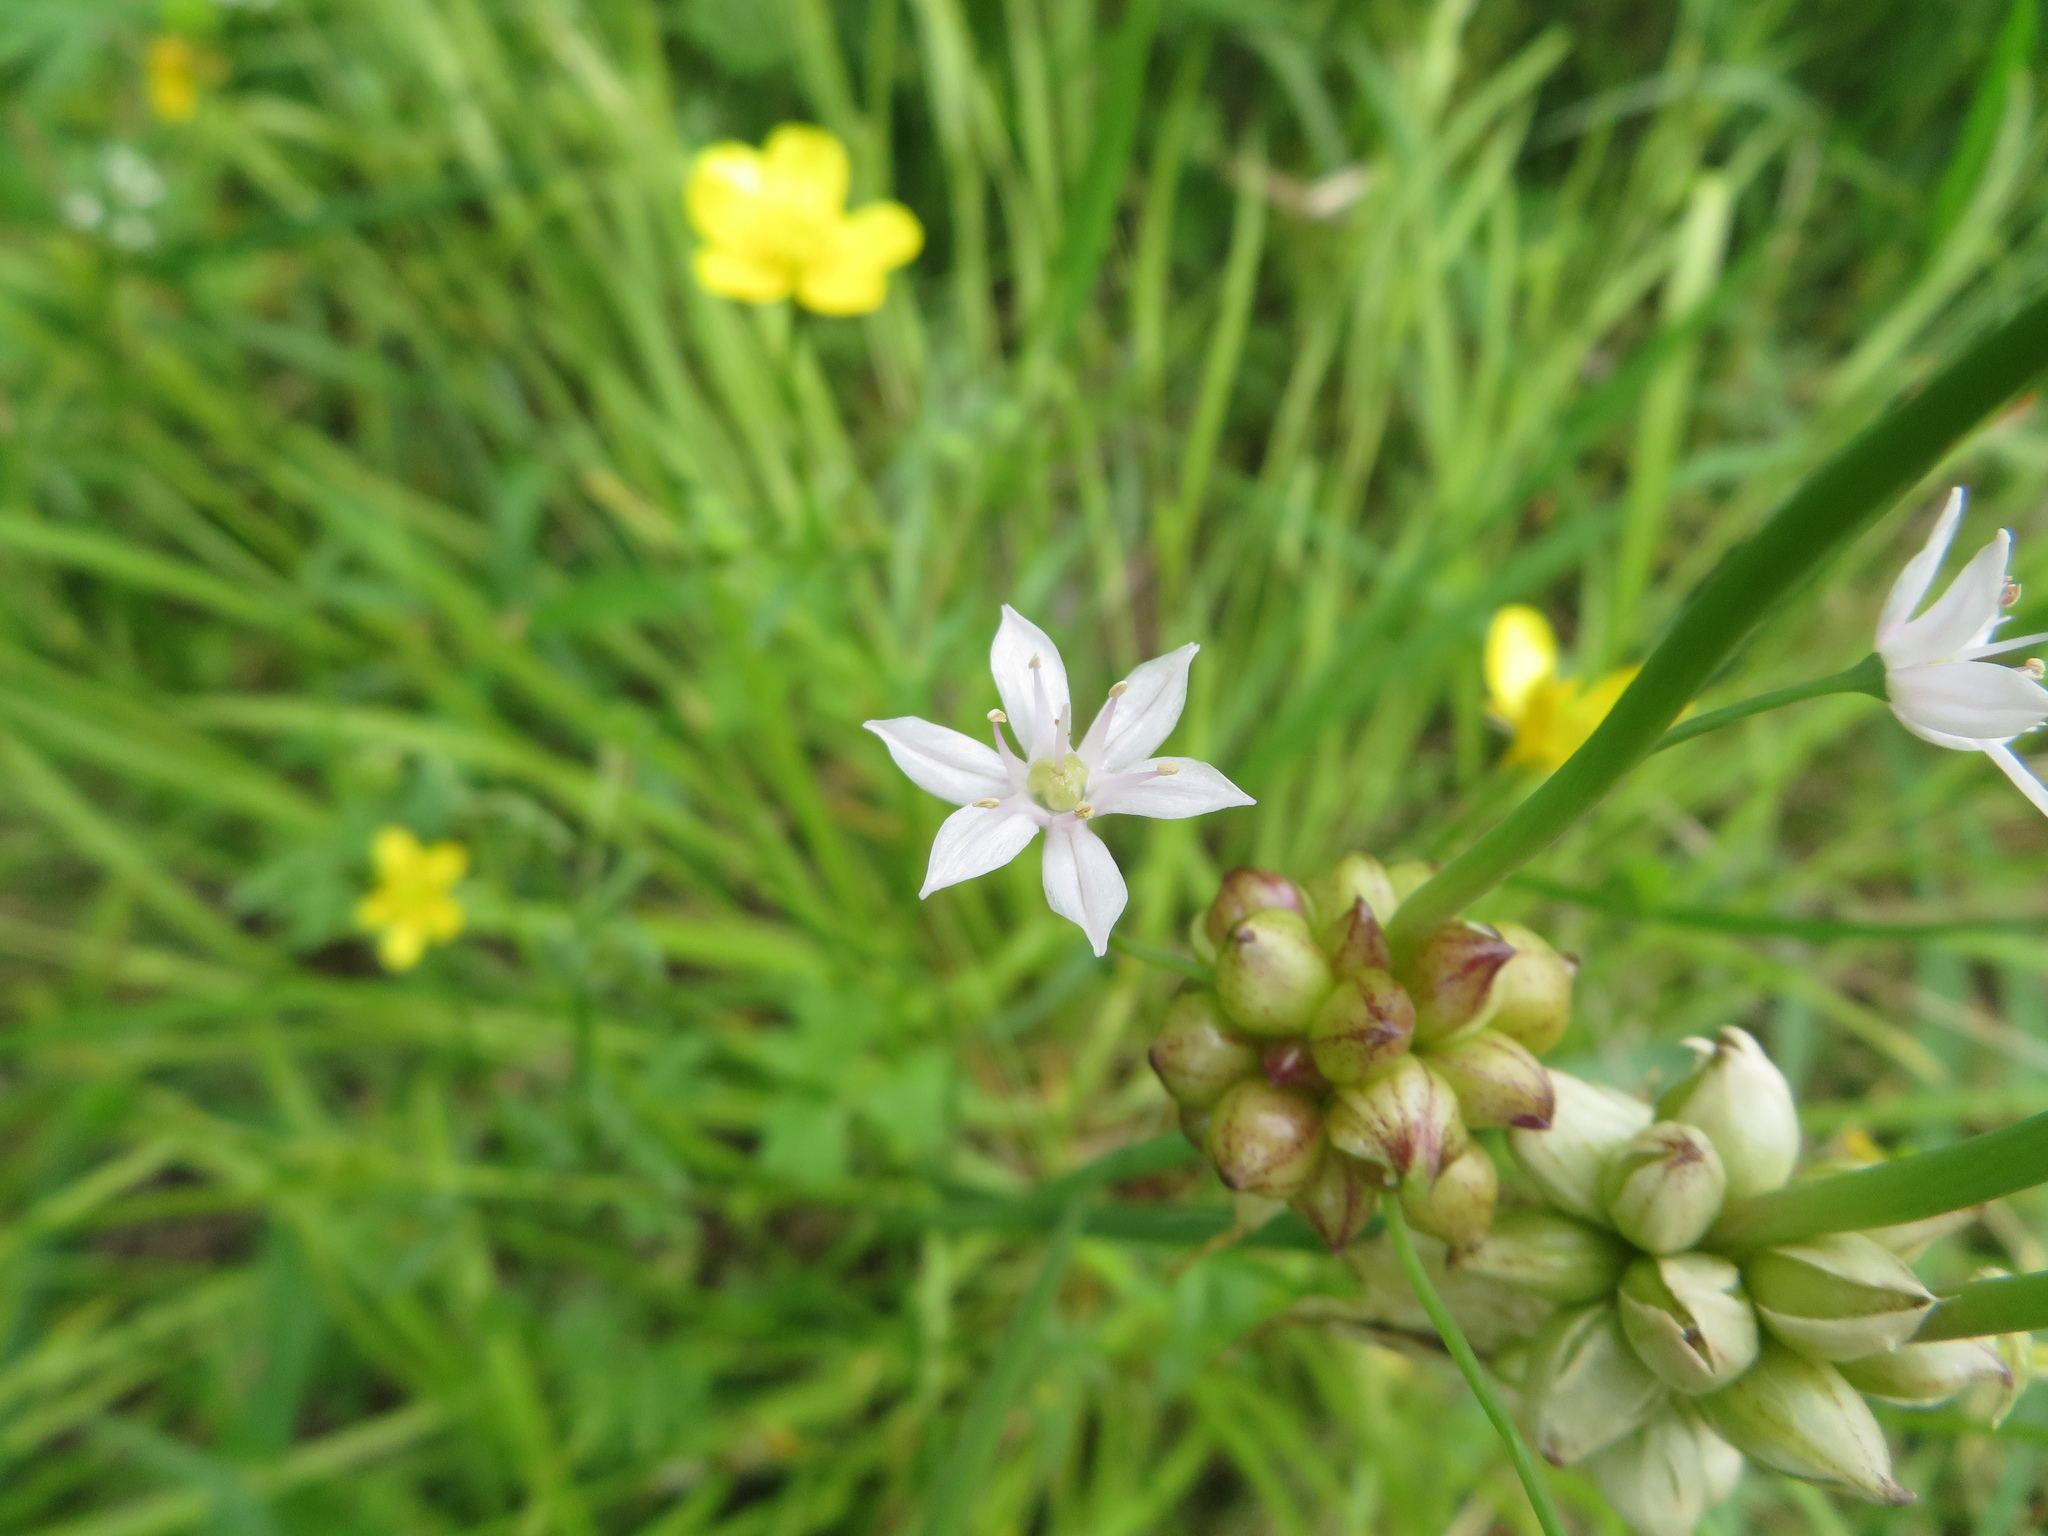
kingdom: Plantae
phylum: Tracheophyta
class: Liliopsida
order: Asparagales
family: Amaryllidaceae
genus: Allium
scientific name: Allium canadense
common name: Meadow garlic
